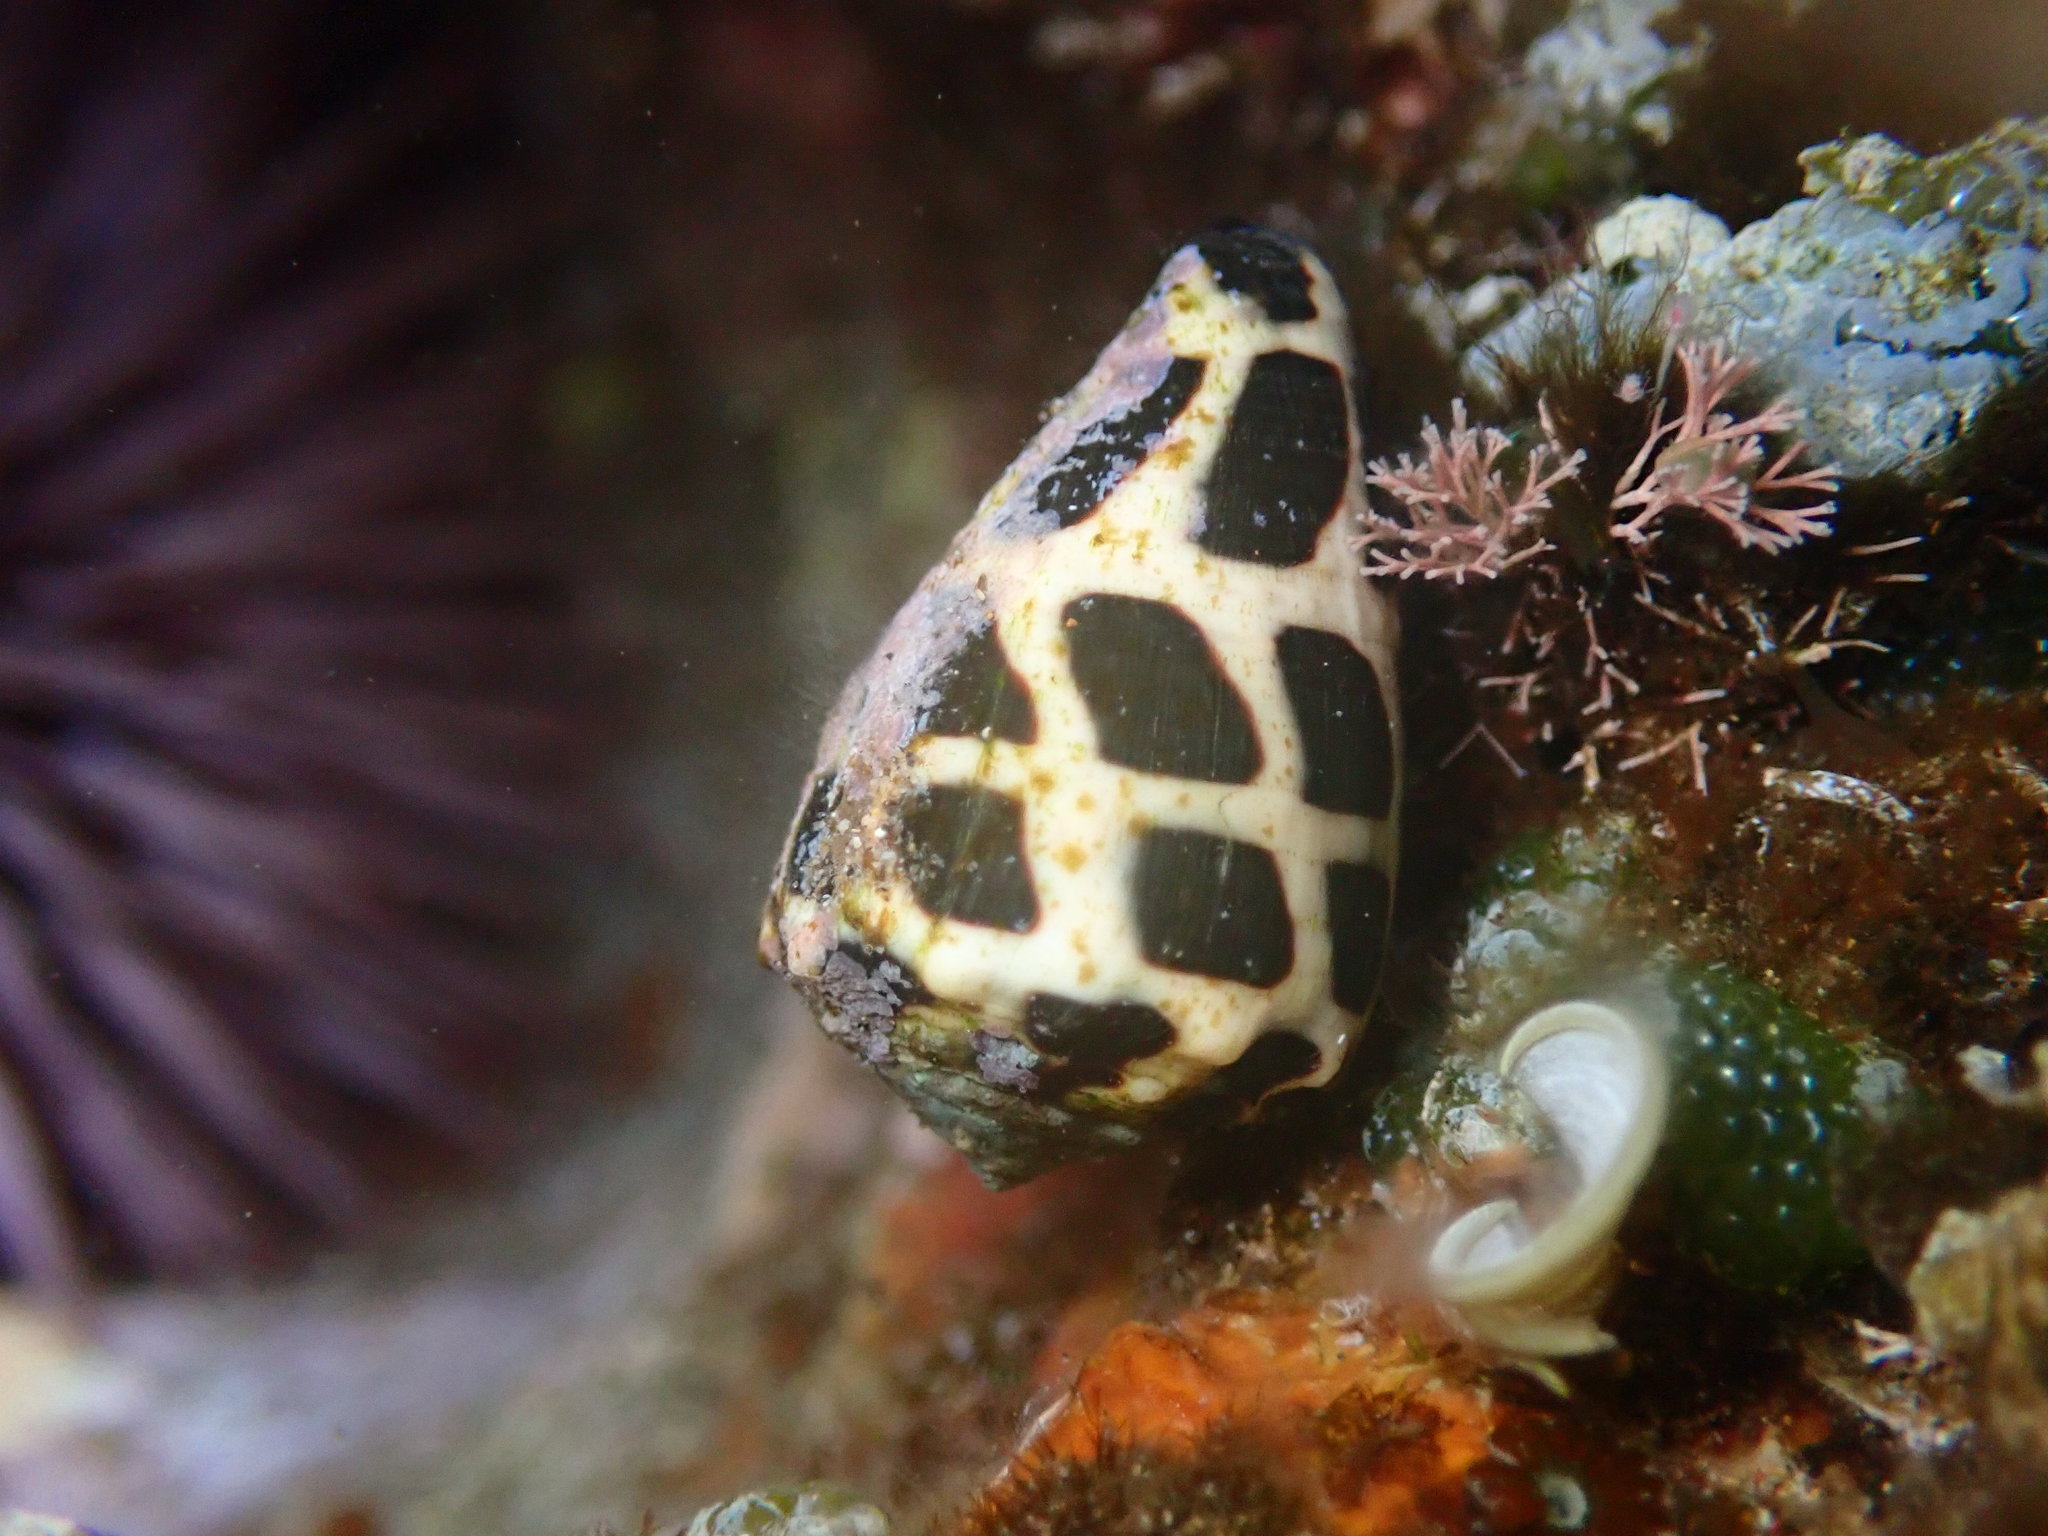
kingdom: Animalia
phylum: Mollusca
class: Gastropoda
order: Neogastropoda
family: Conidae
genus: Conus
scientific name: Conus ebraeus
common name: Hebrew cone
